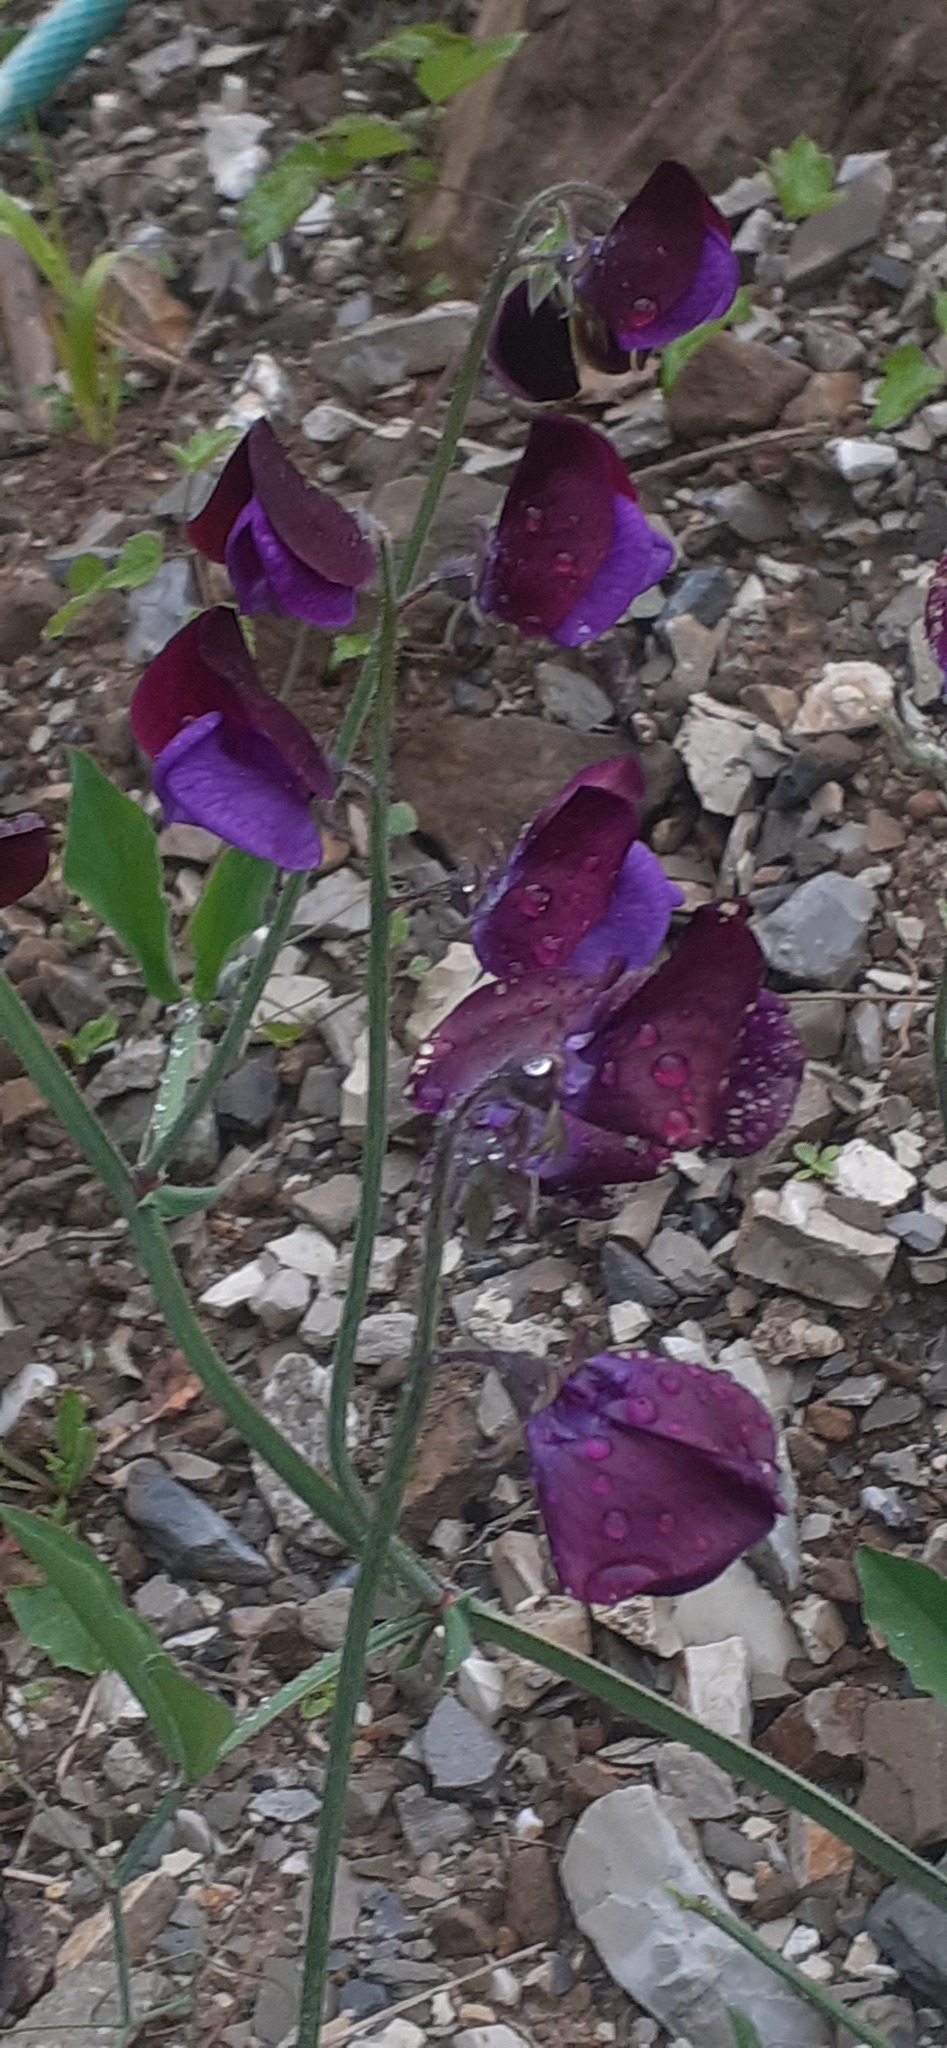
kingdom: Plantae
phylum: Tracheophyta
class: Magnoliopsida
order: Fabales
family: Fabaceae
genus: Lathyrus
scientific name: Lathyrus clymenum
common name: Spanish vetchling
